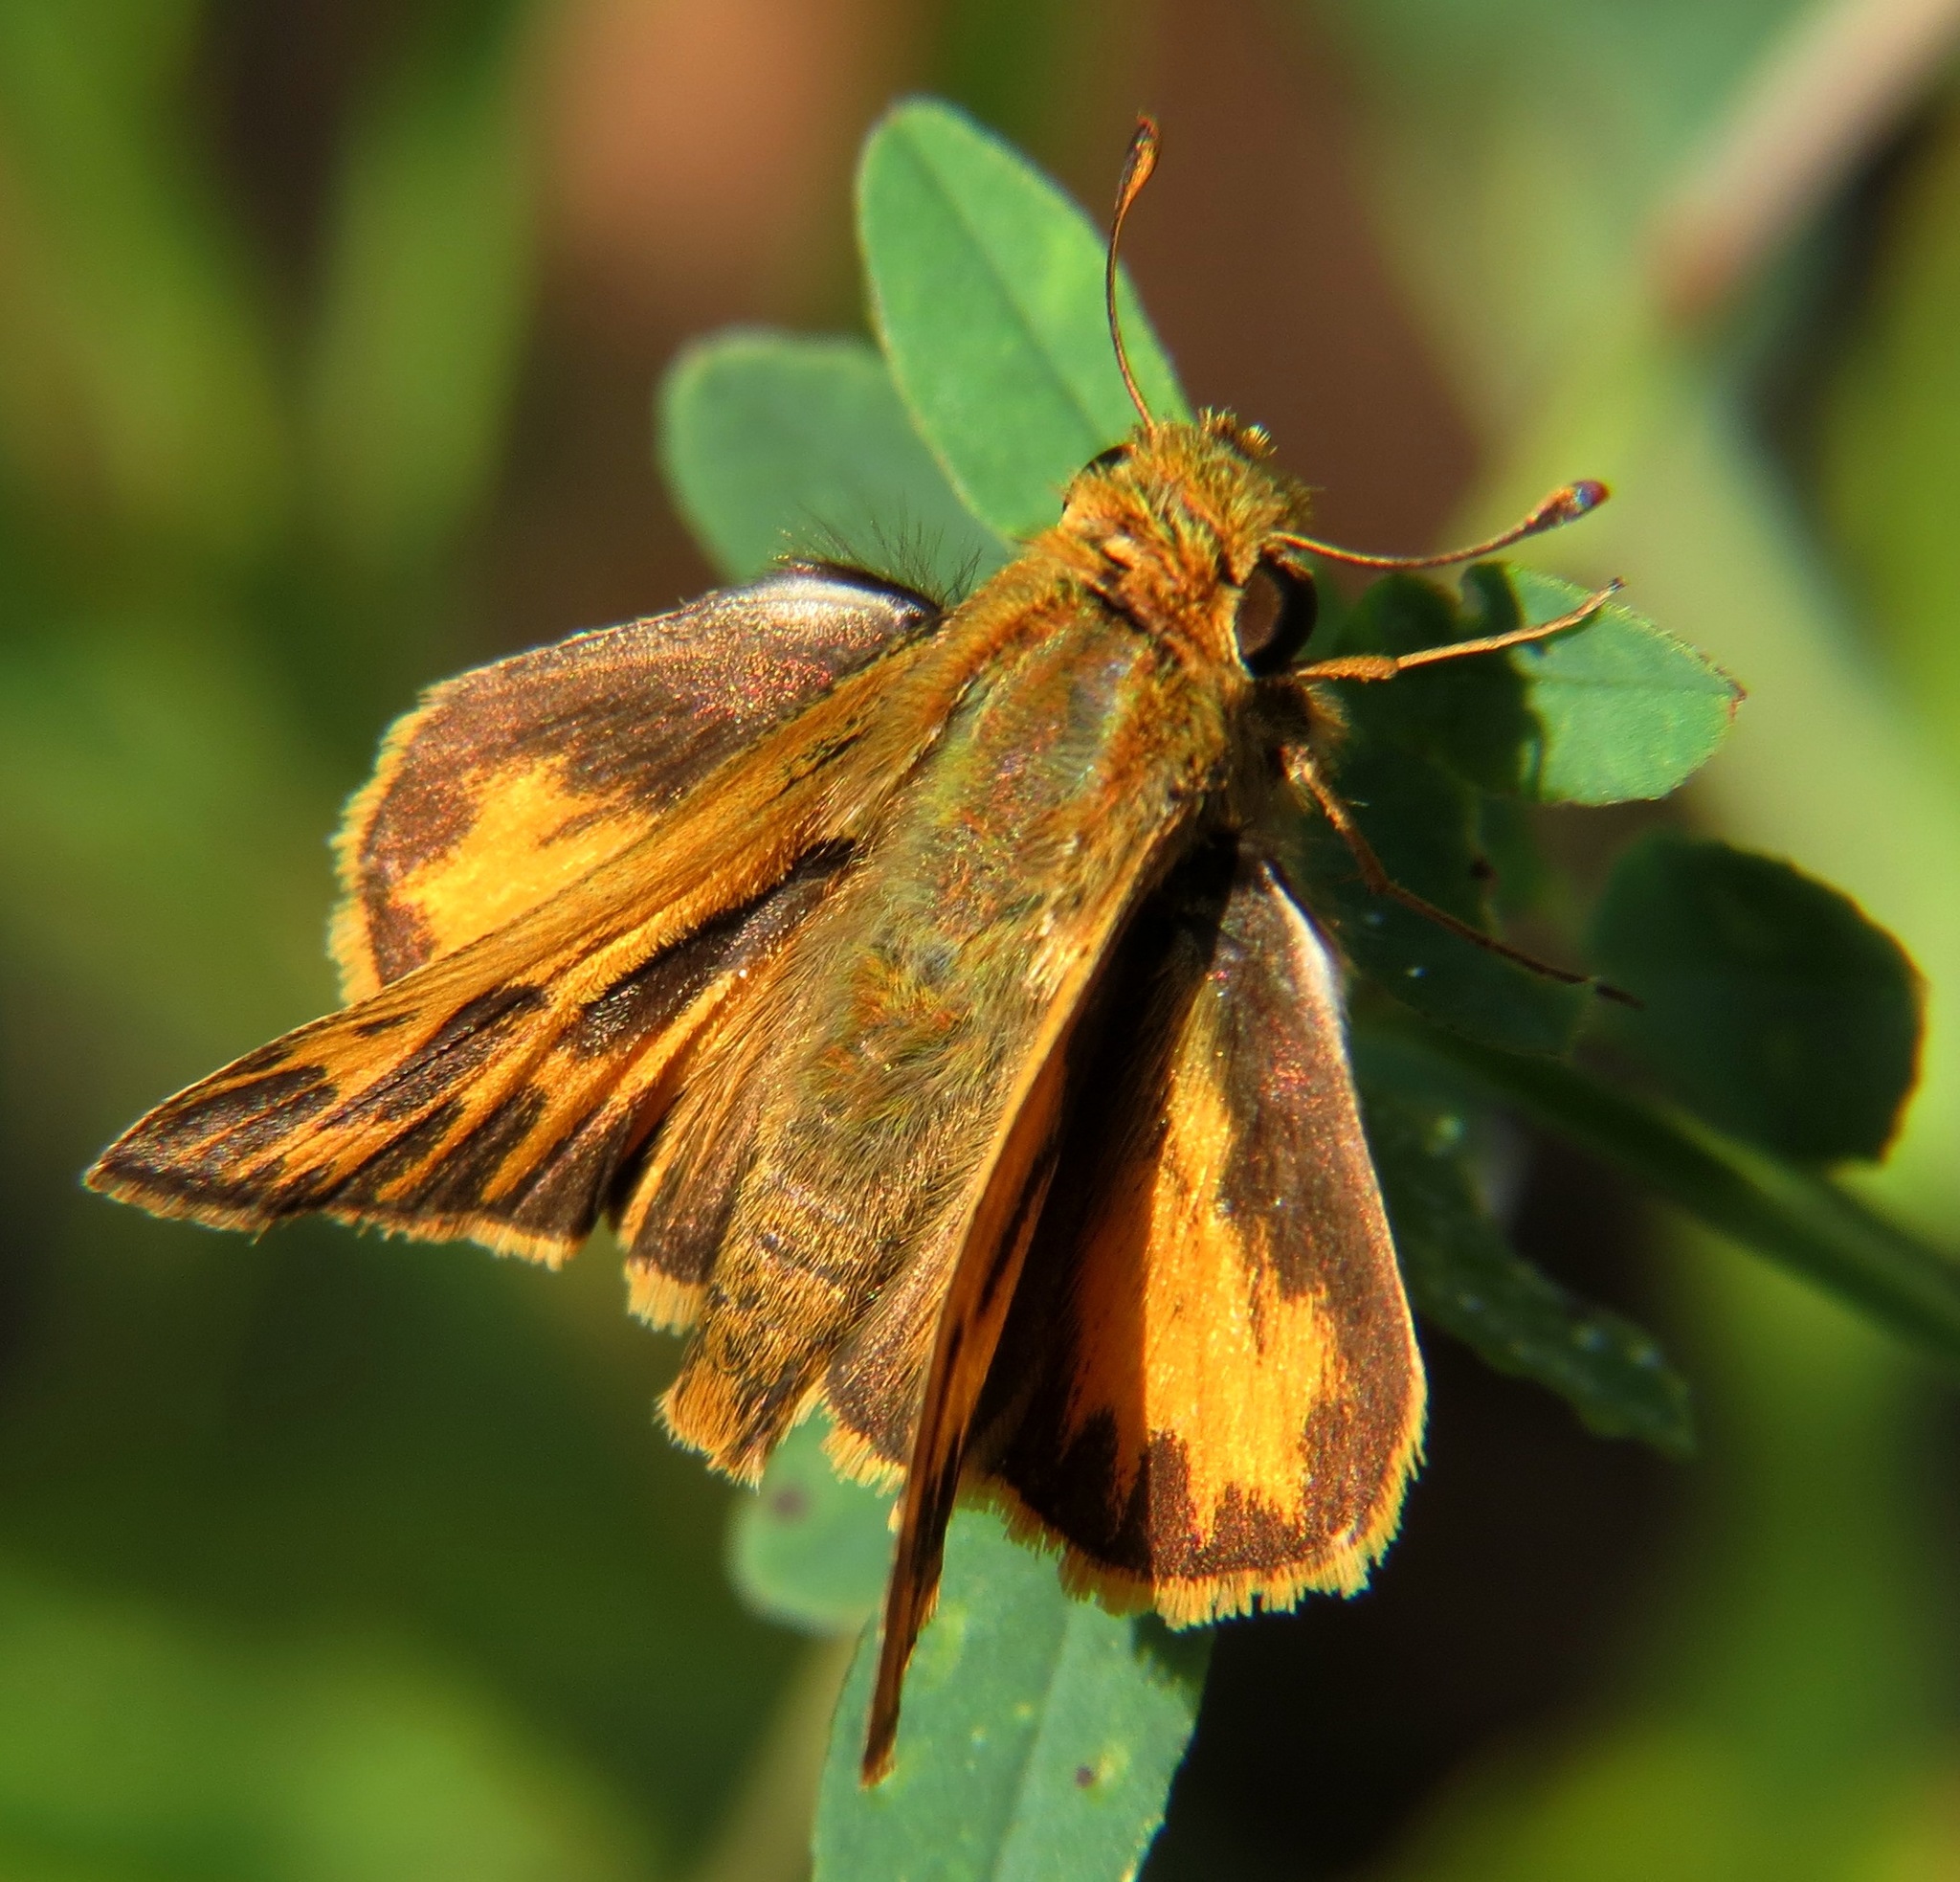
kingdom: Animalia
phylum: Arthropoda
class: Insecta
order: Lepidoptera
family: Hesperiidae
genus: Hylephila
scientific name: Hylephila phyleus
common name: Fiery skipper
